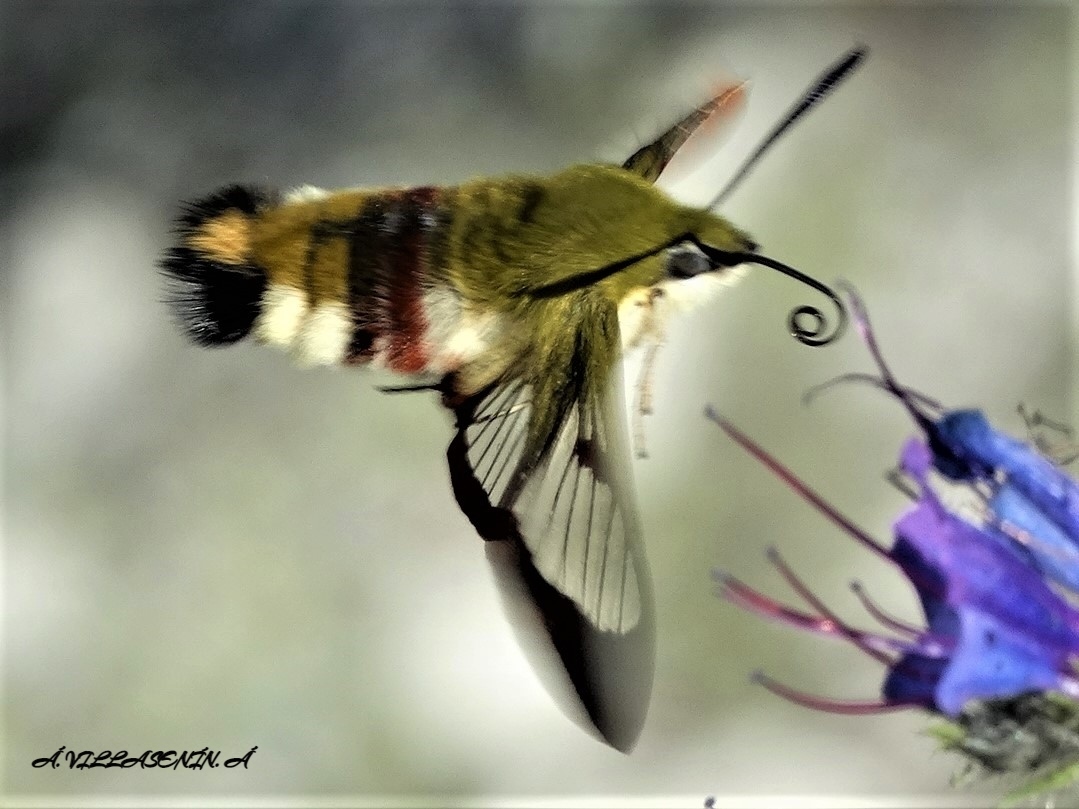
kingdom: Animalia
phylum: Arthropoda
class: Insecta
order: Lepidoptera
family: Sphingidae
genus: Hemaris
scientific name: Hemaris fuciformis
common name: Broad-bordered bee hawk-moth
